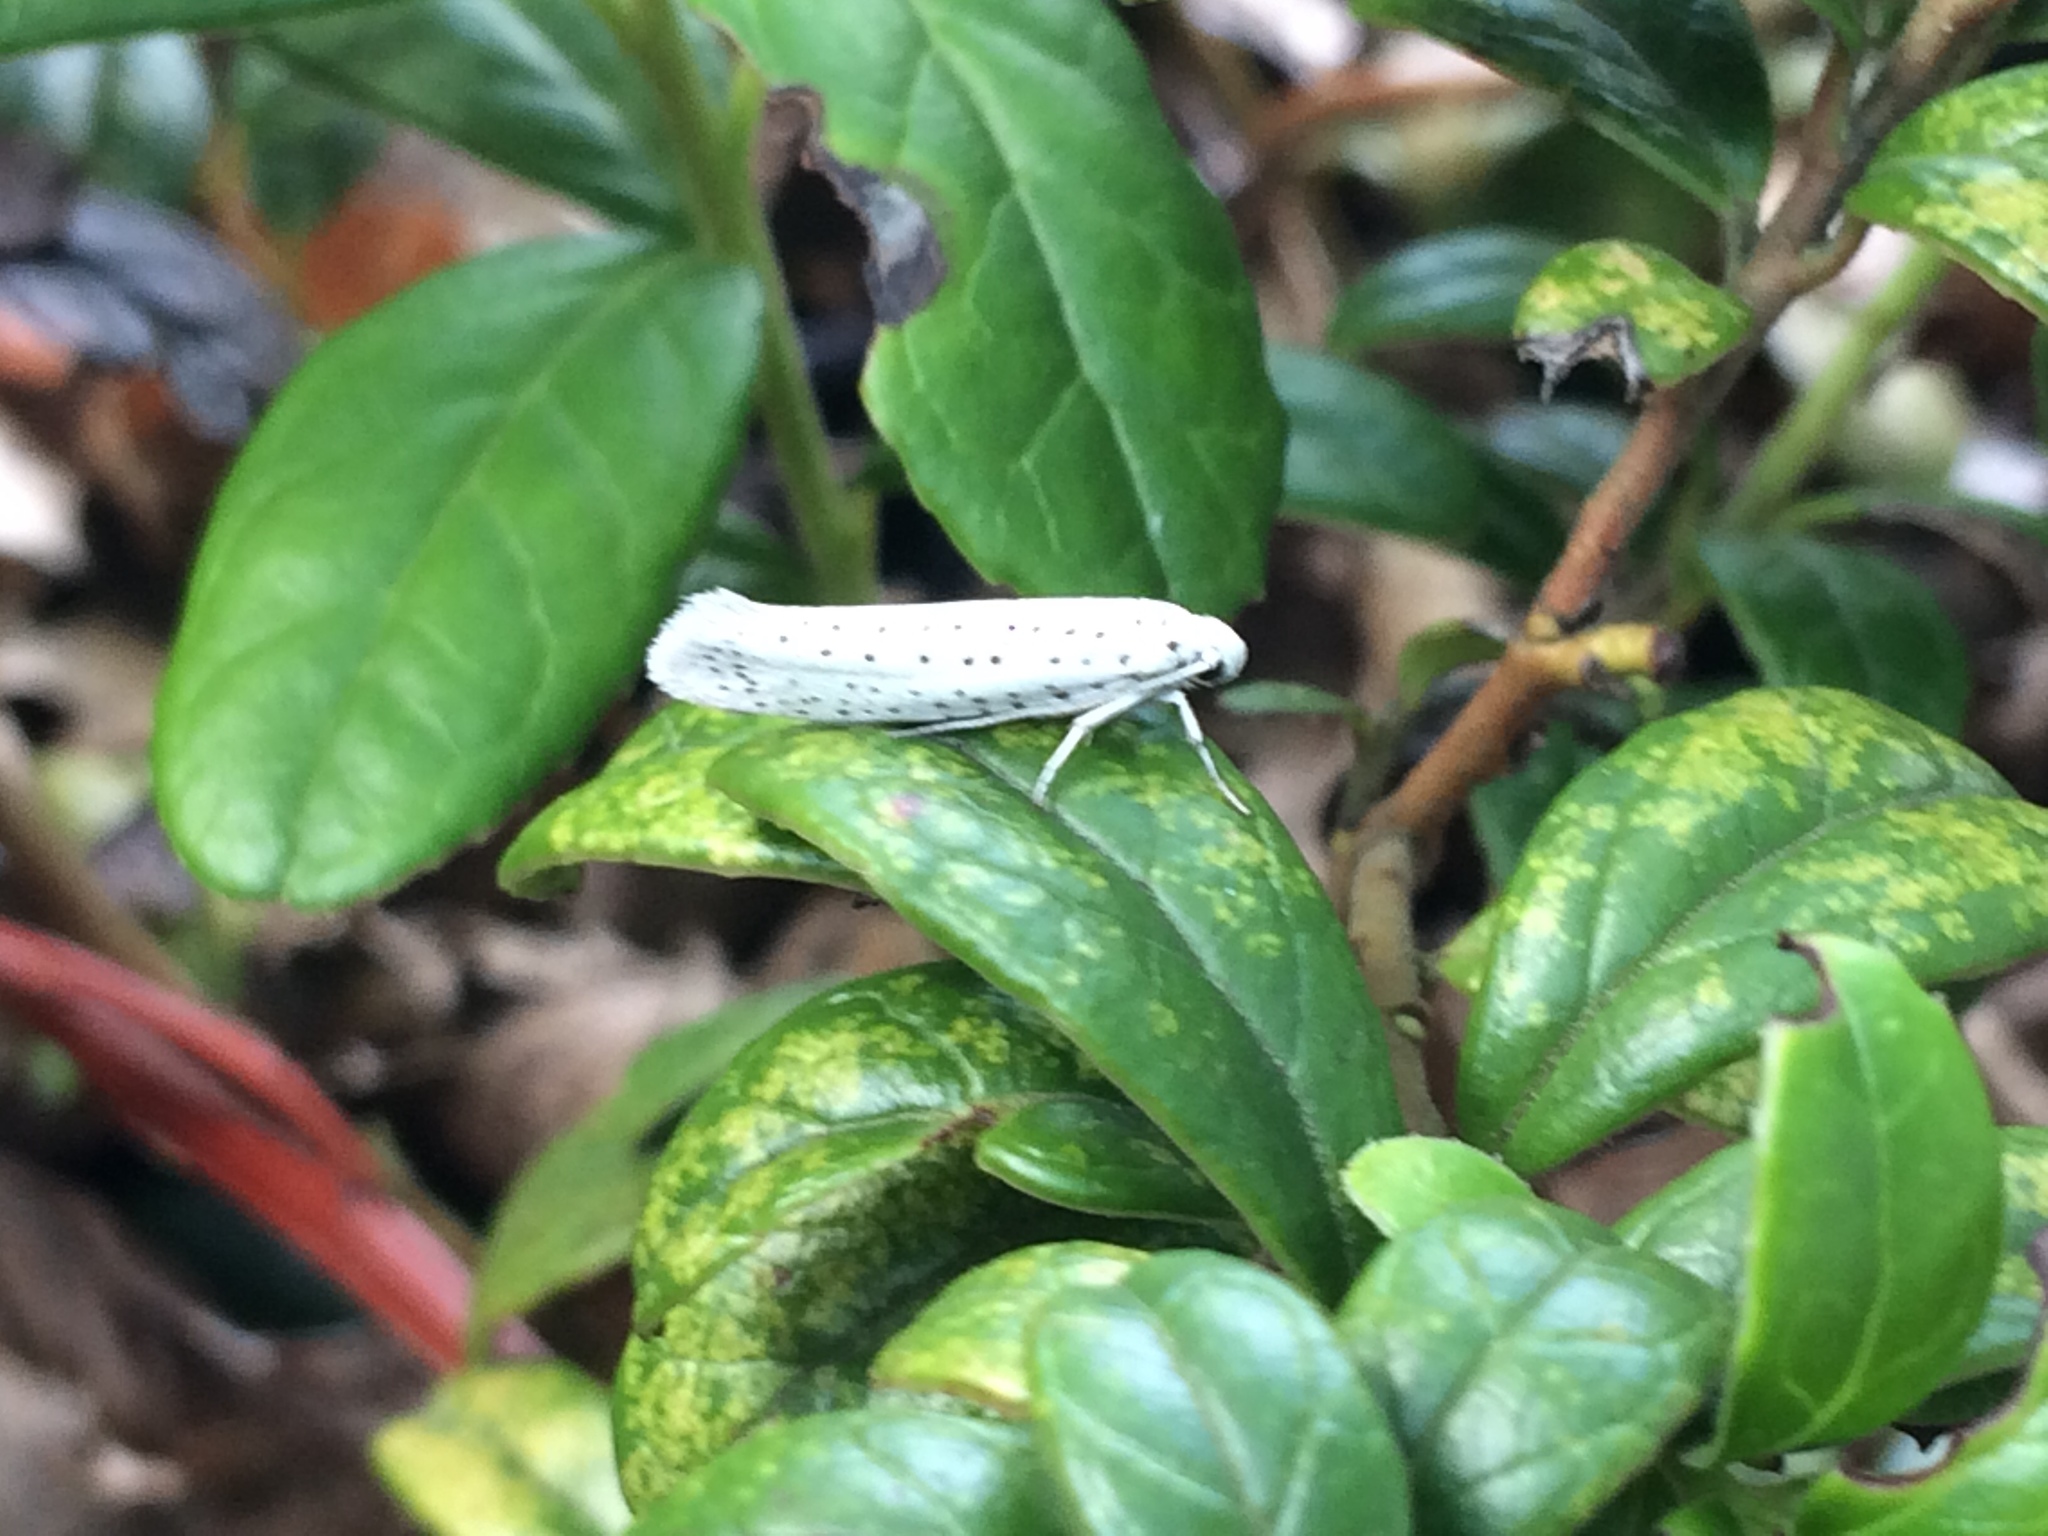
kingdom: Animalia
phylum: Arthropoda
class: Insecta
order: Lepidoptera
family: Yponomeutidae
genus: Yponomeuta
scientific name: Yponomeuta evonymella
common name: Bird-cherry ermine
